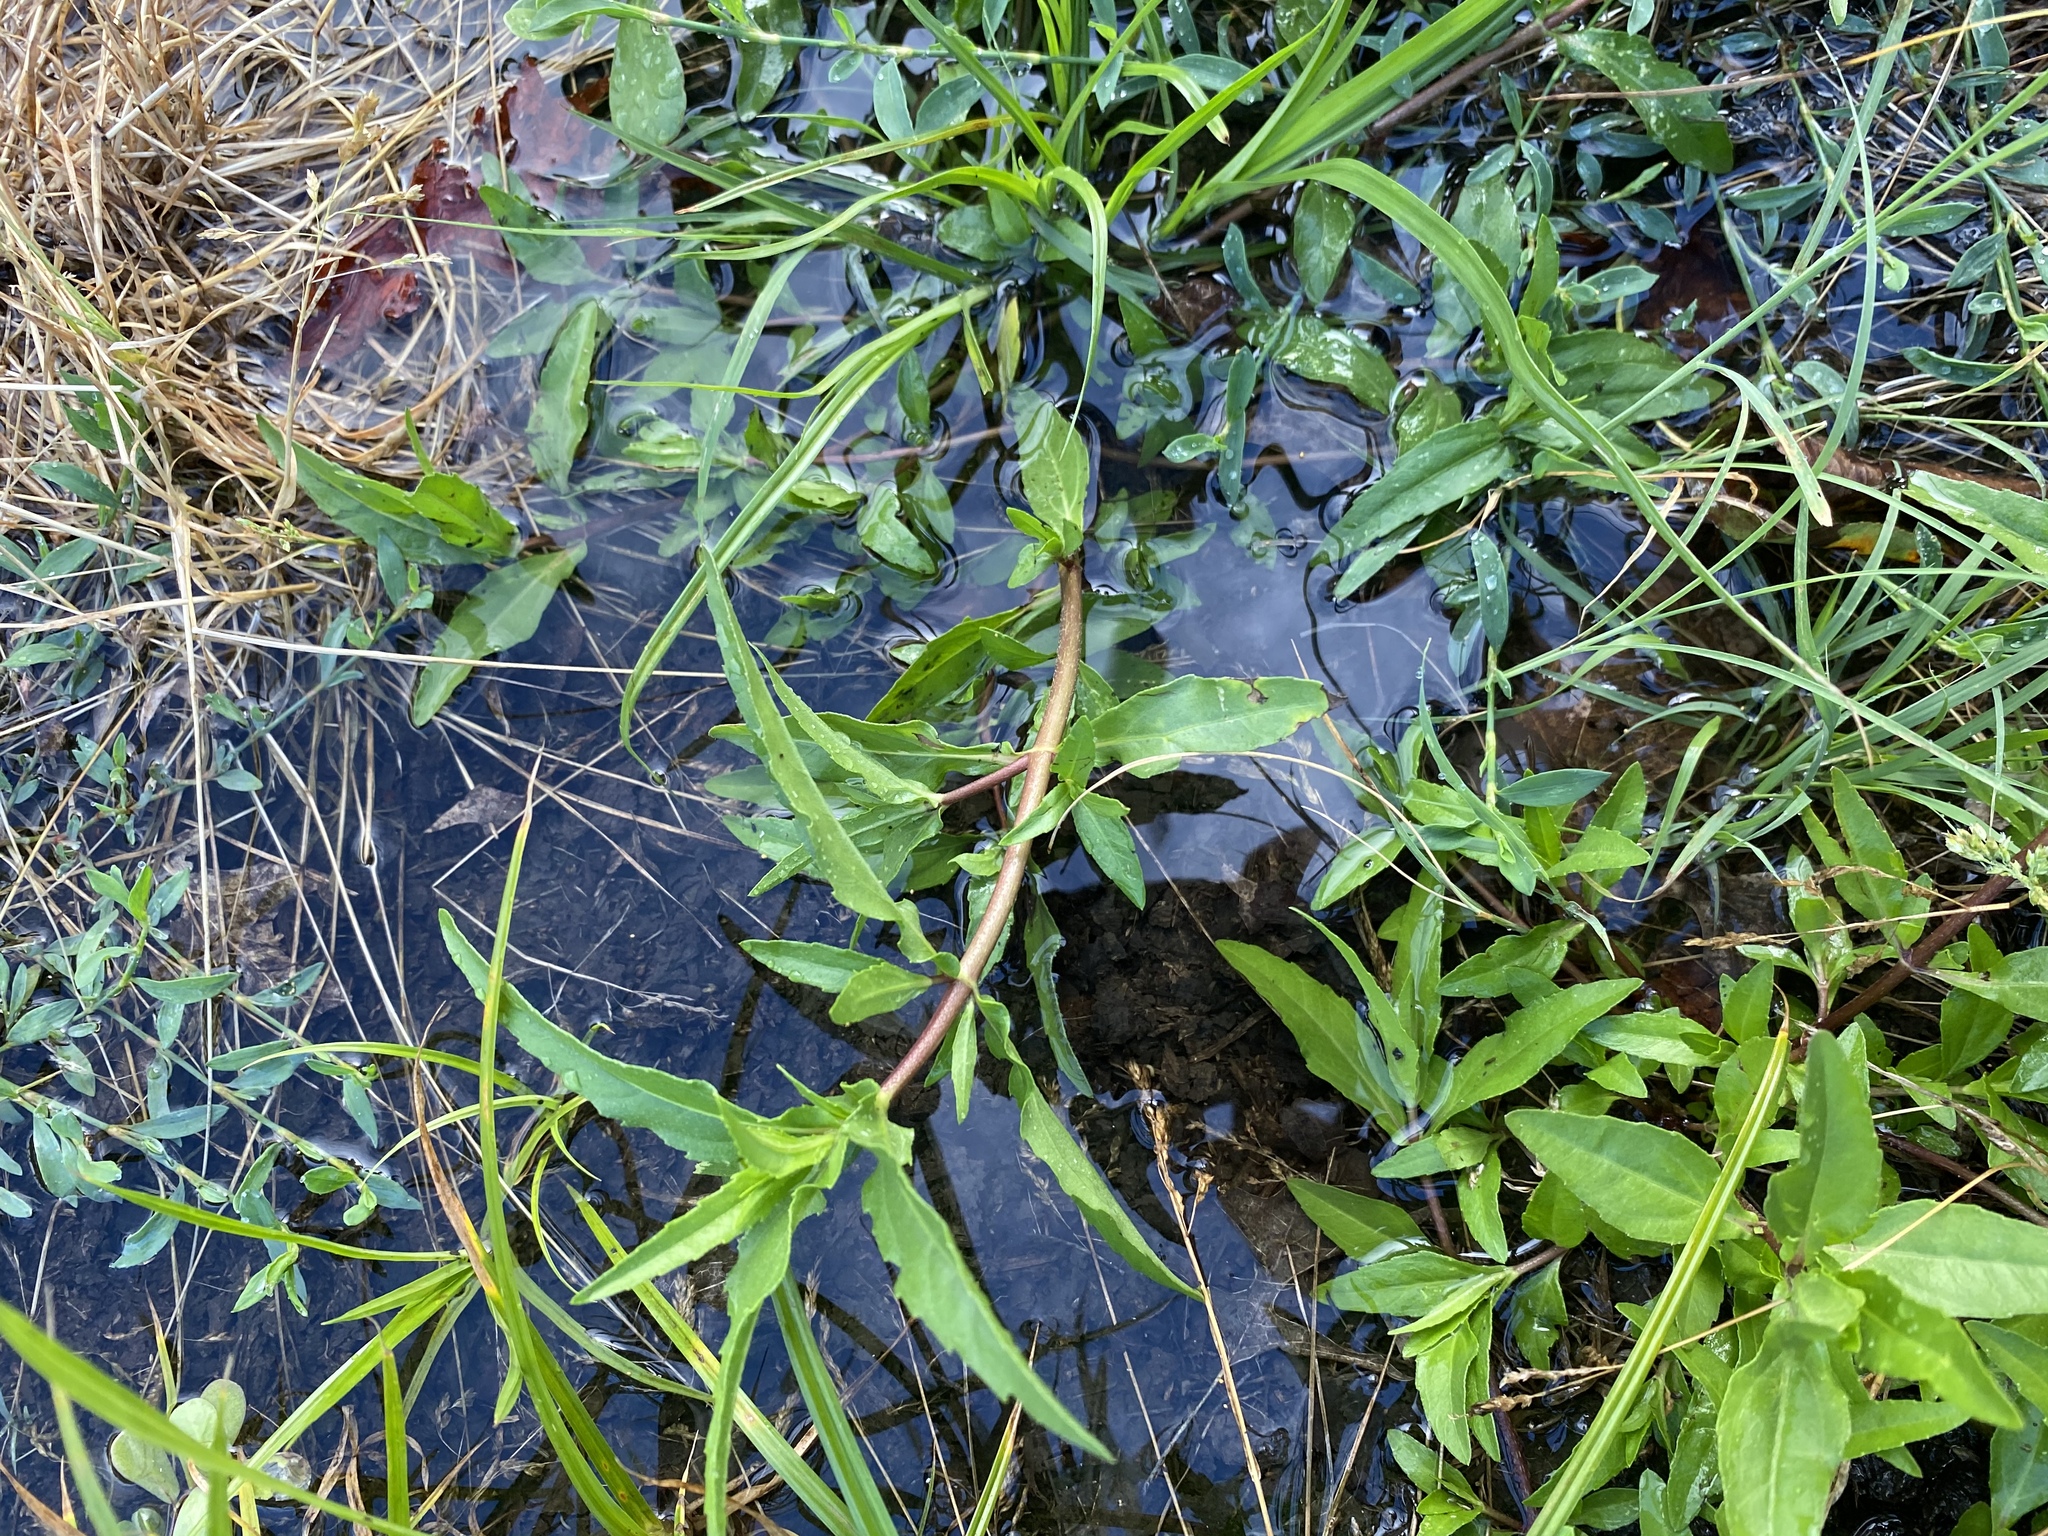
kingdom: Plantae
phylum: Tracheophyta
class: Magnoliopsida
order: Asterales
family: Asteraceae
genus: Eclipta
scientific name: Eclipta prostrata
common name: False daisy
